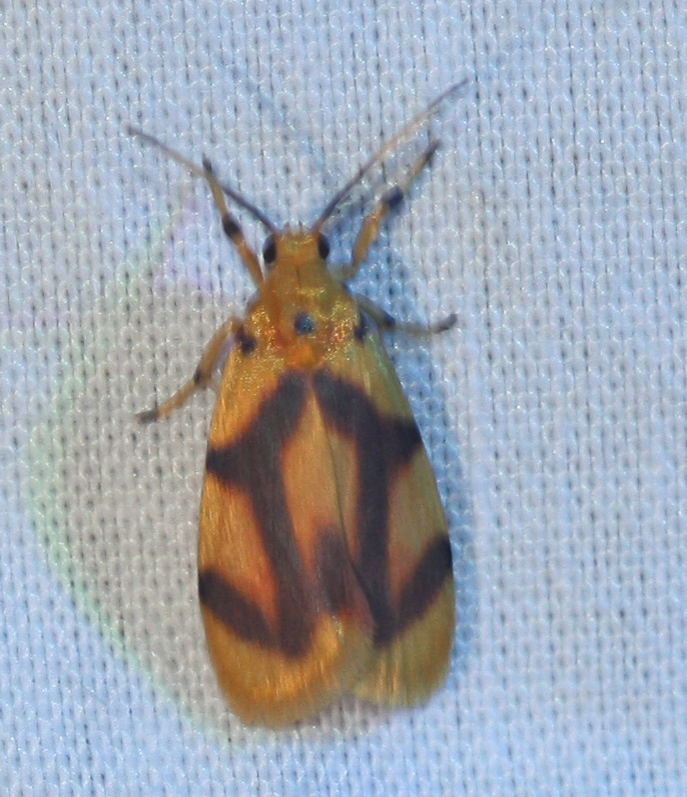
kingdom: Animalia
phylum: Arthropoda
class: Insecta
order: Lepidoptera
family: Erebidae
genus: Gaudeator
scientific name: Gaudeator paidicus
